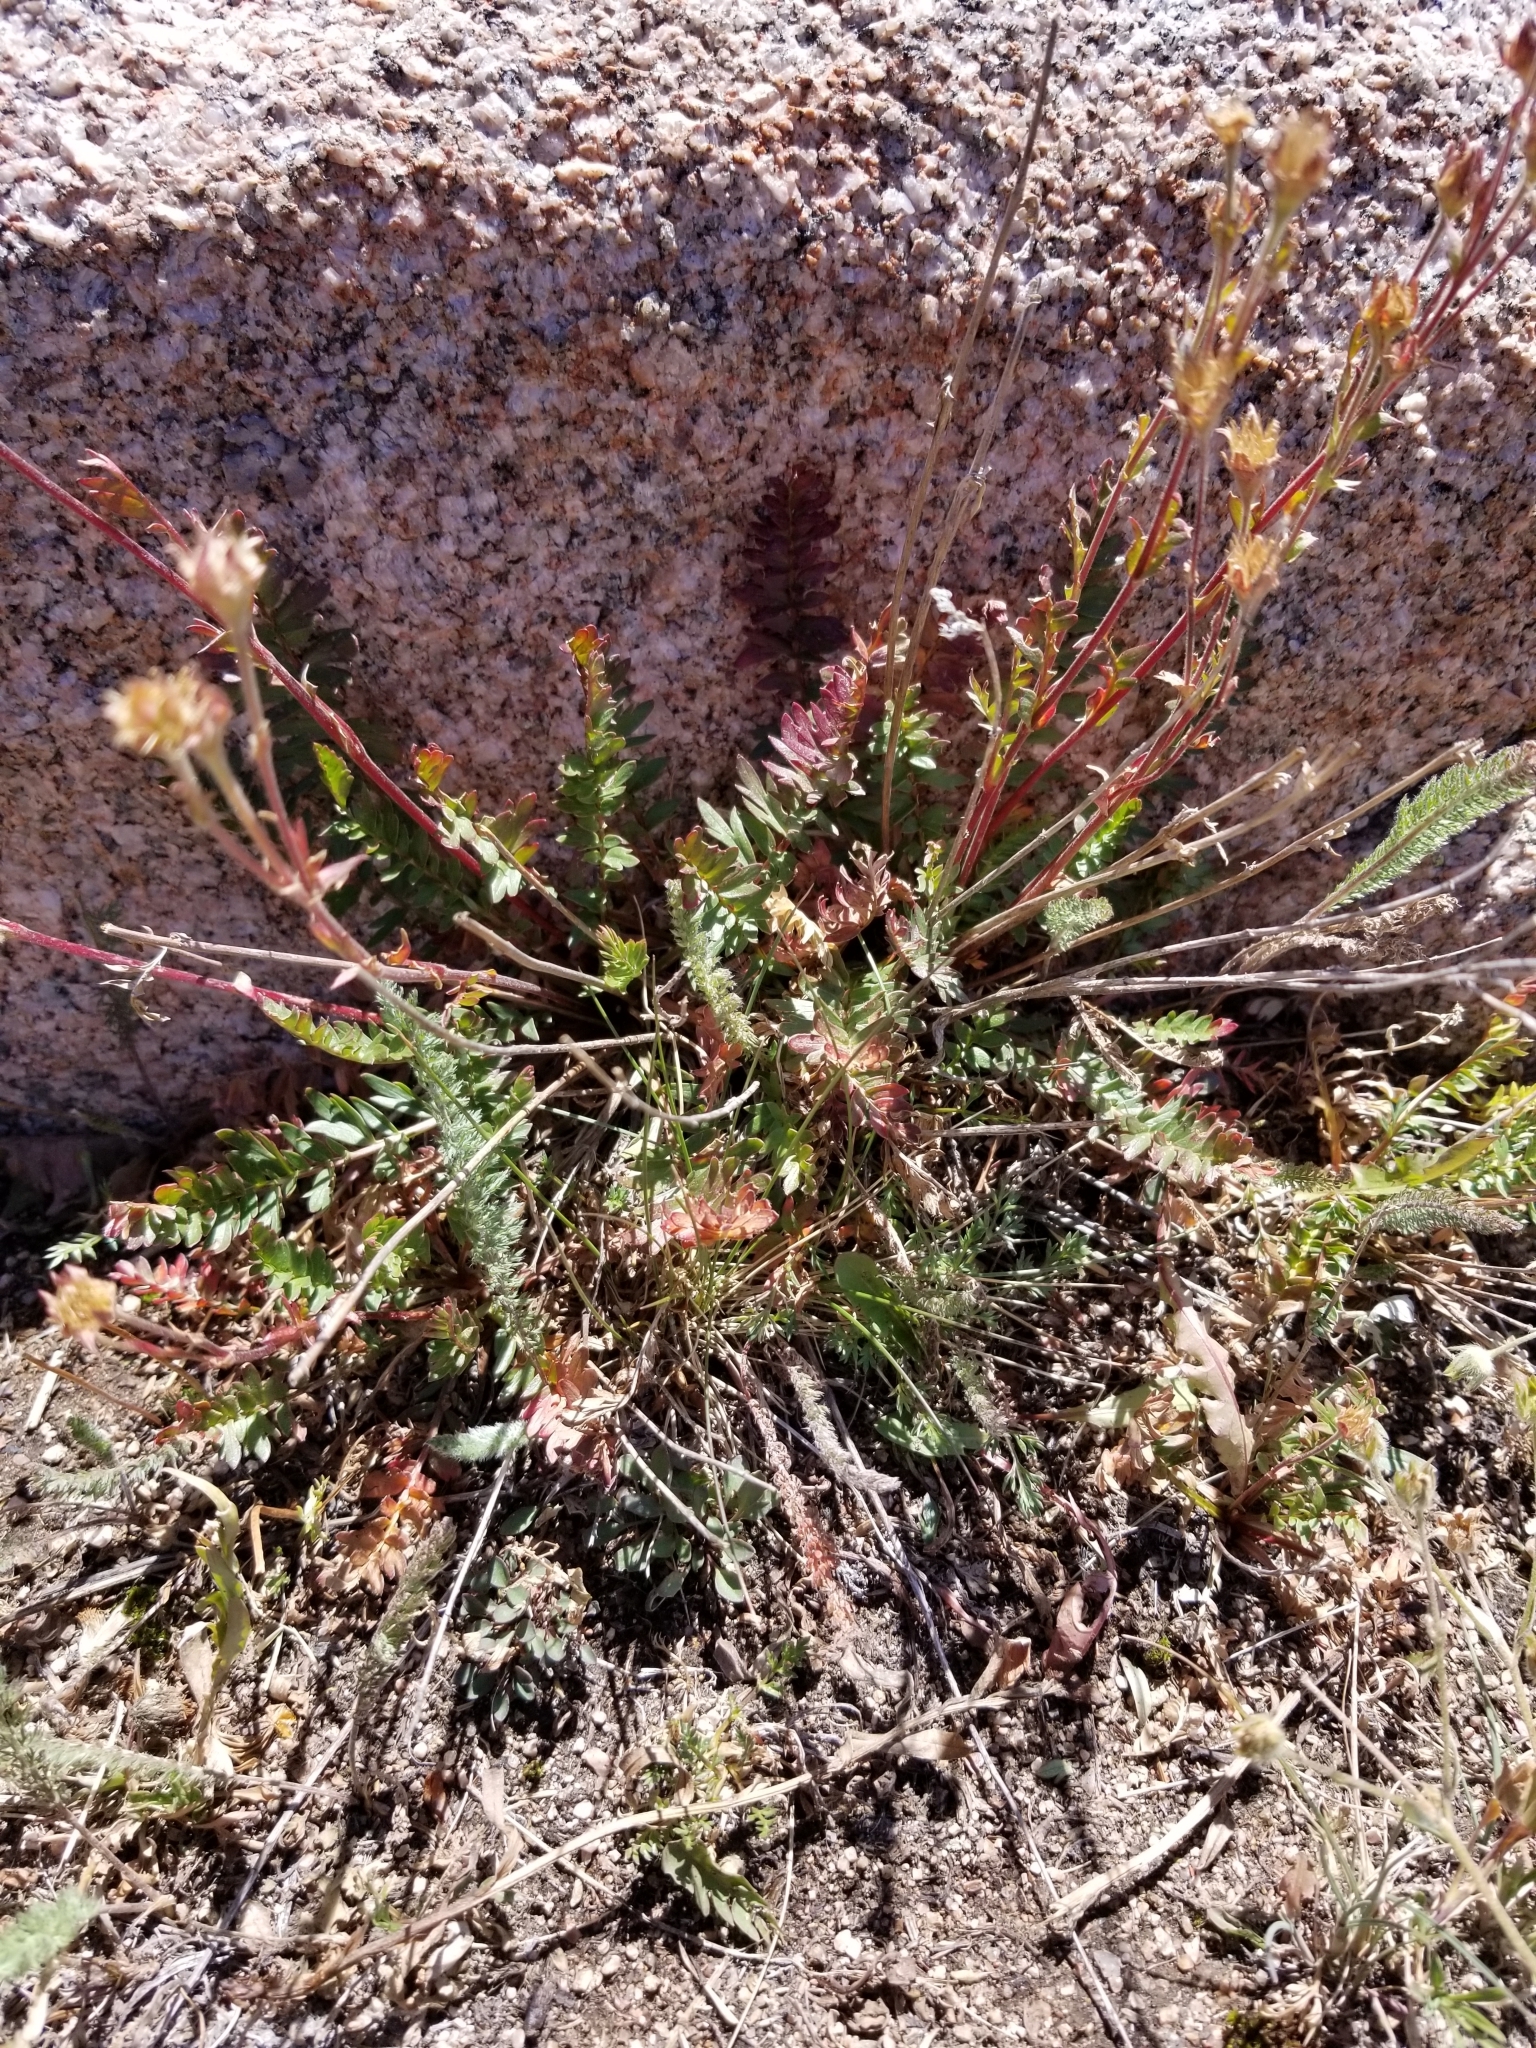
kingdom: Plantae
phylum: Tracheophyta
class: Magnoliopsida
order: Rosales
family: Rosaceae
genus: Geum
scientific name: Geum rossii
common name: Alpine avens
